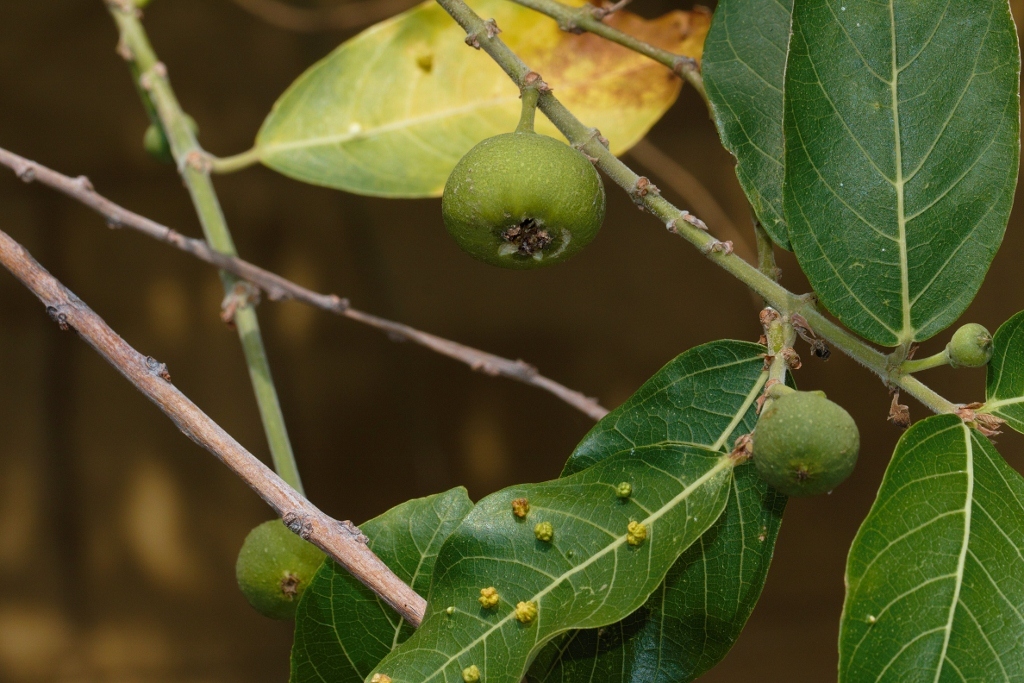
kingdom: Plantae
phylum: Tracheophyta
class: Magnoliopsida
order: Rosales
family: Moraceae
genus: Ficus
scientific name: Ficus capreifolia
